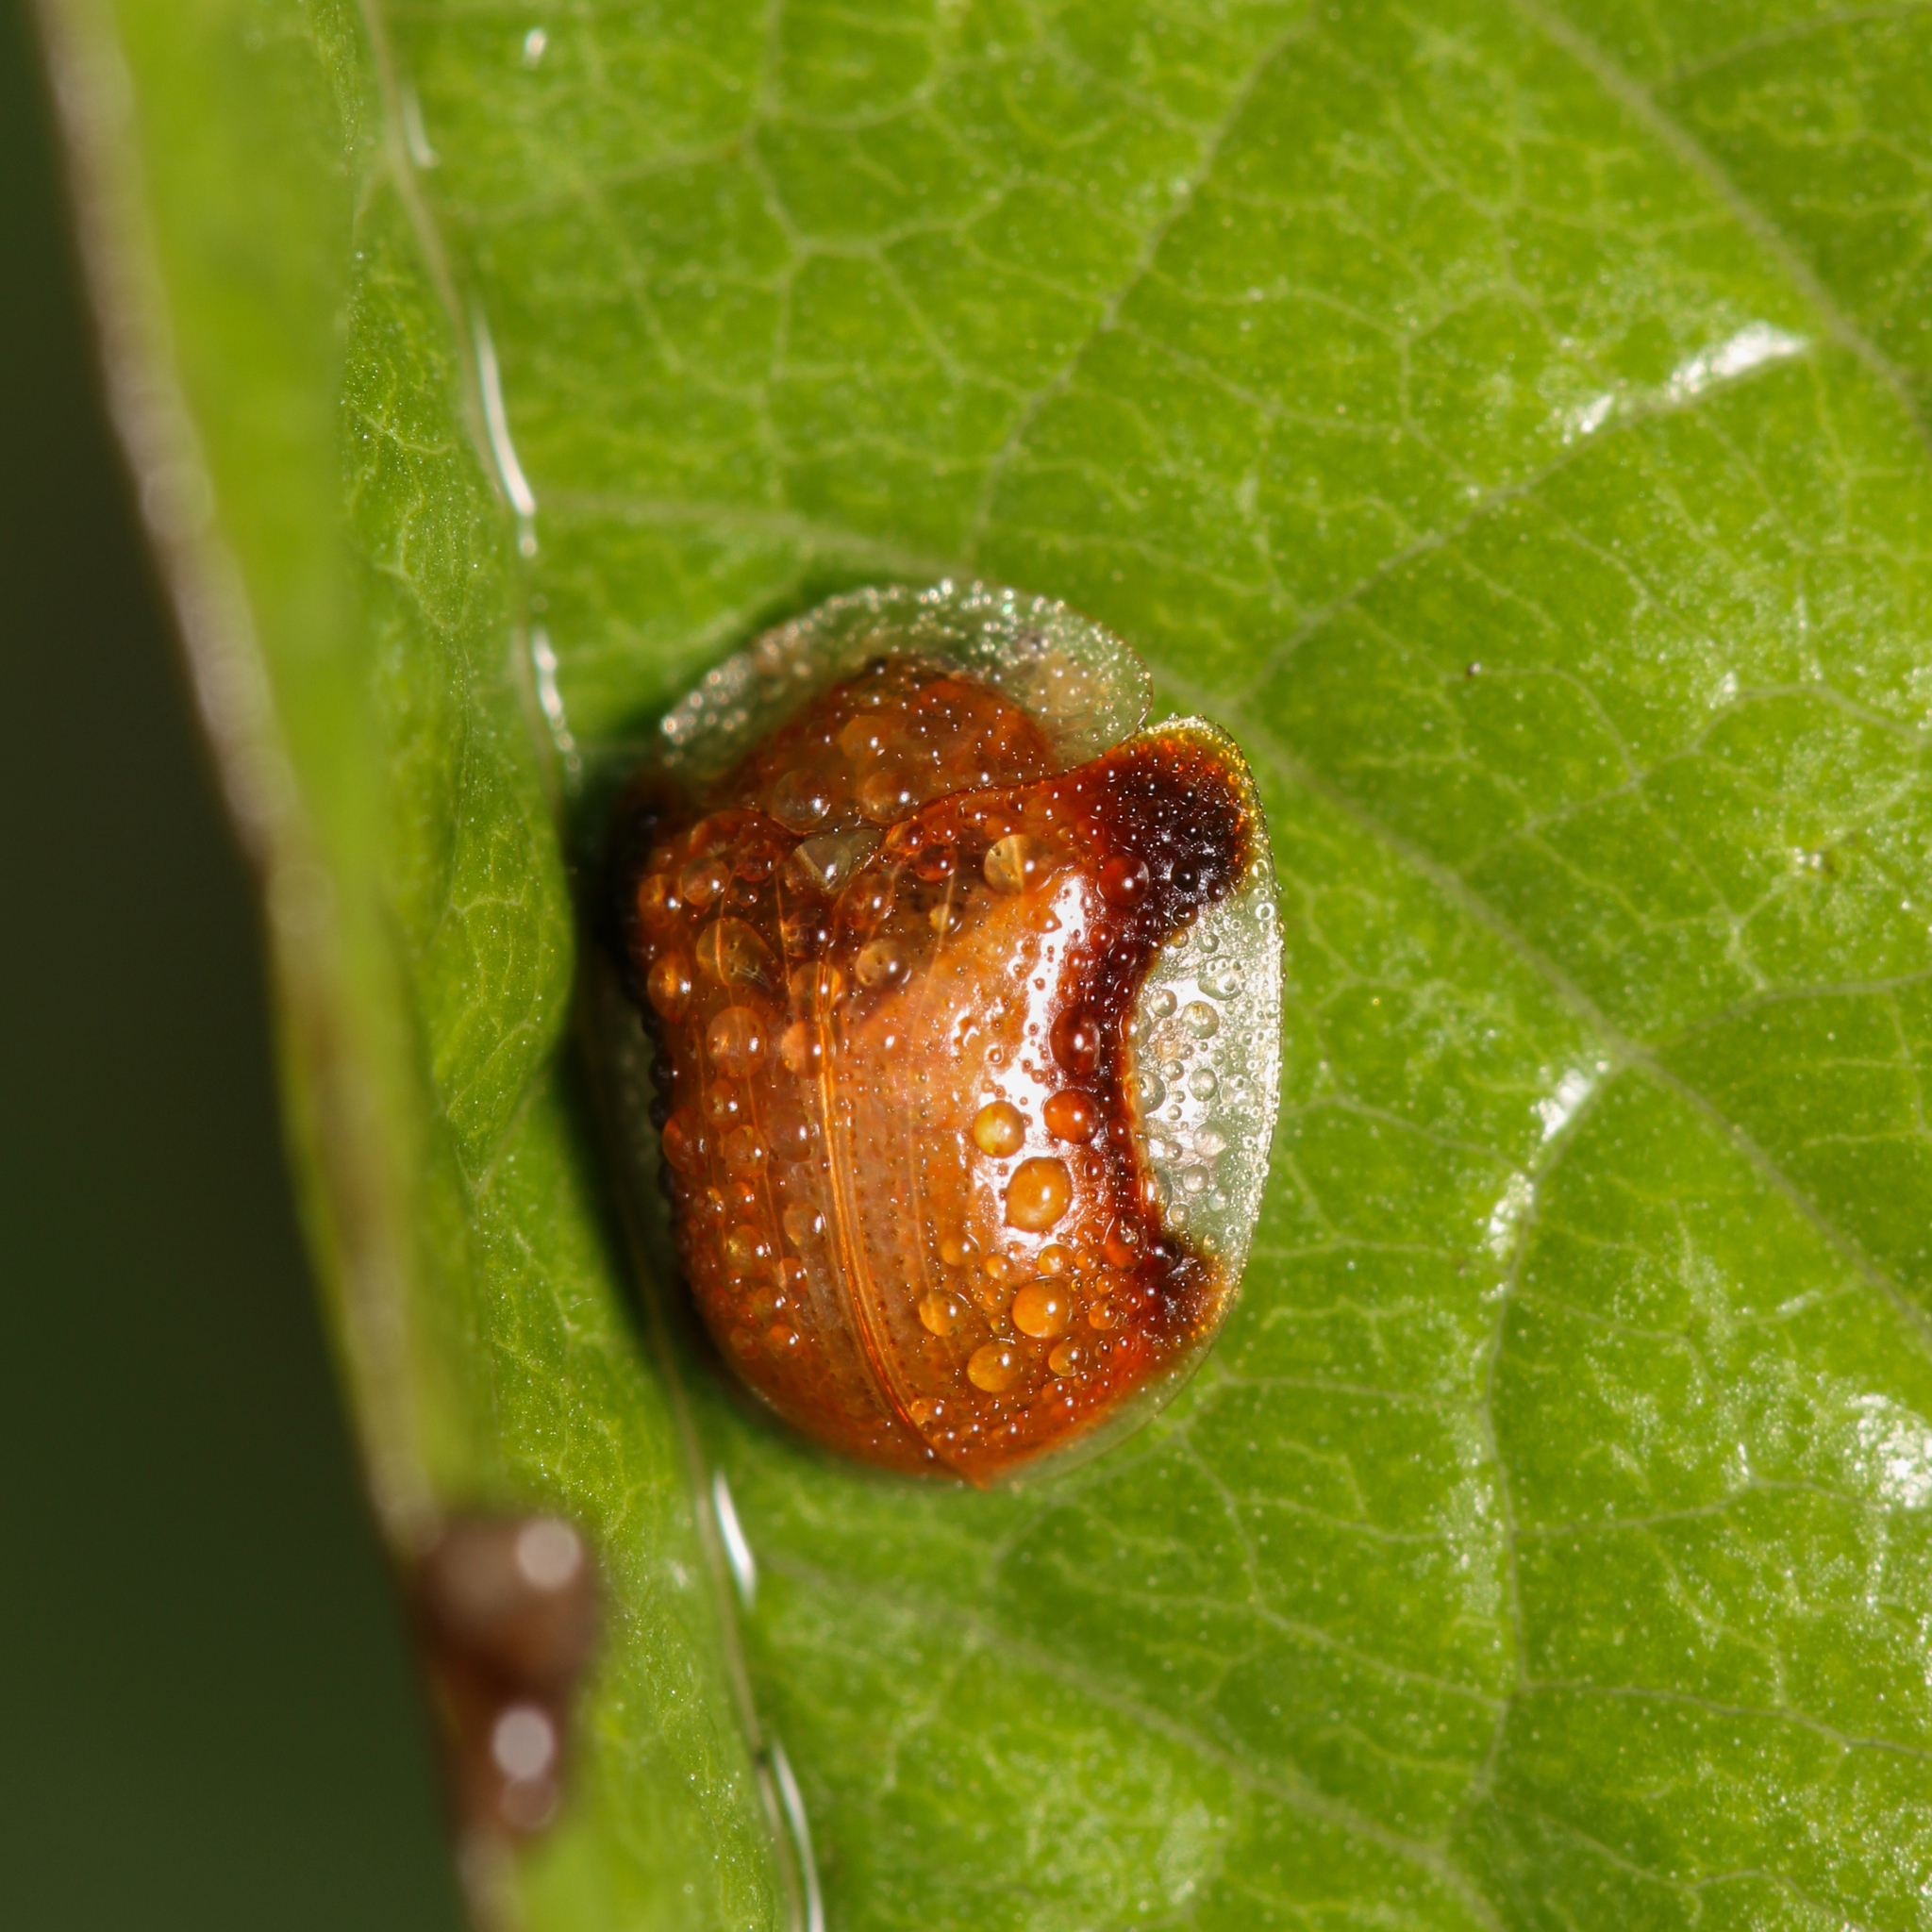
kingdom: Animalia
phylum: Arthropoda
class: Insecta
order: Coleoptera
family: Chrysomelidae
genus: Charidotella
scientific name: Charidotella purpurata
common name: Small orange tortoise beetle
